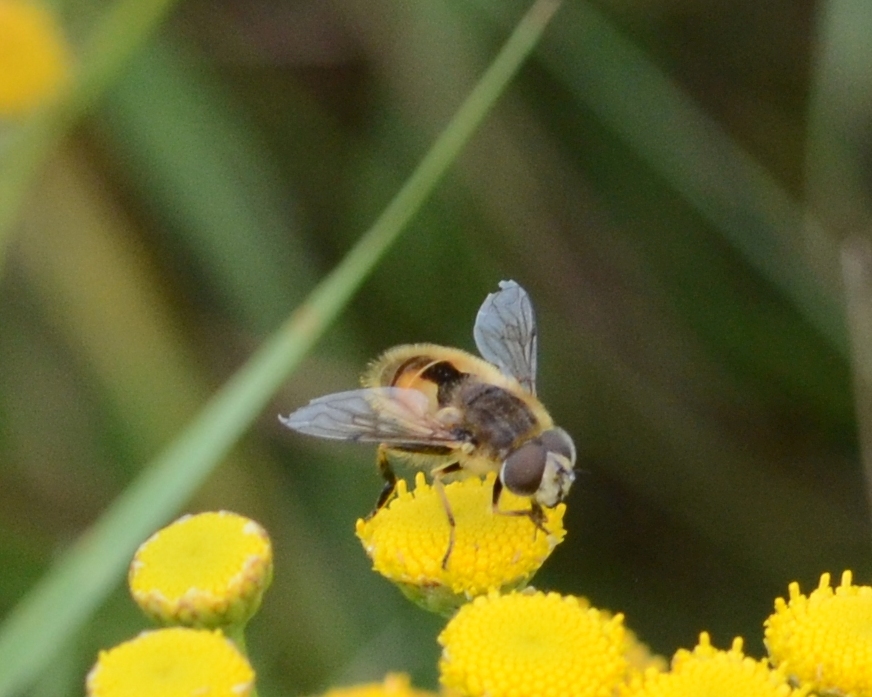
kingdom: Animalia
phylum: Arthropoda
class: Insecta
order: Diptera
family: Syrphidae
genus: Eristalis
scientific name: Eristalis arbustorum
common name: Hover fly
